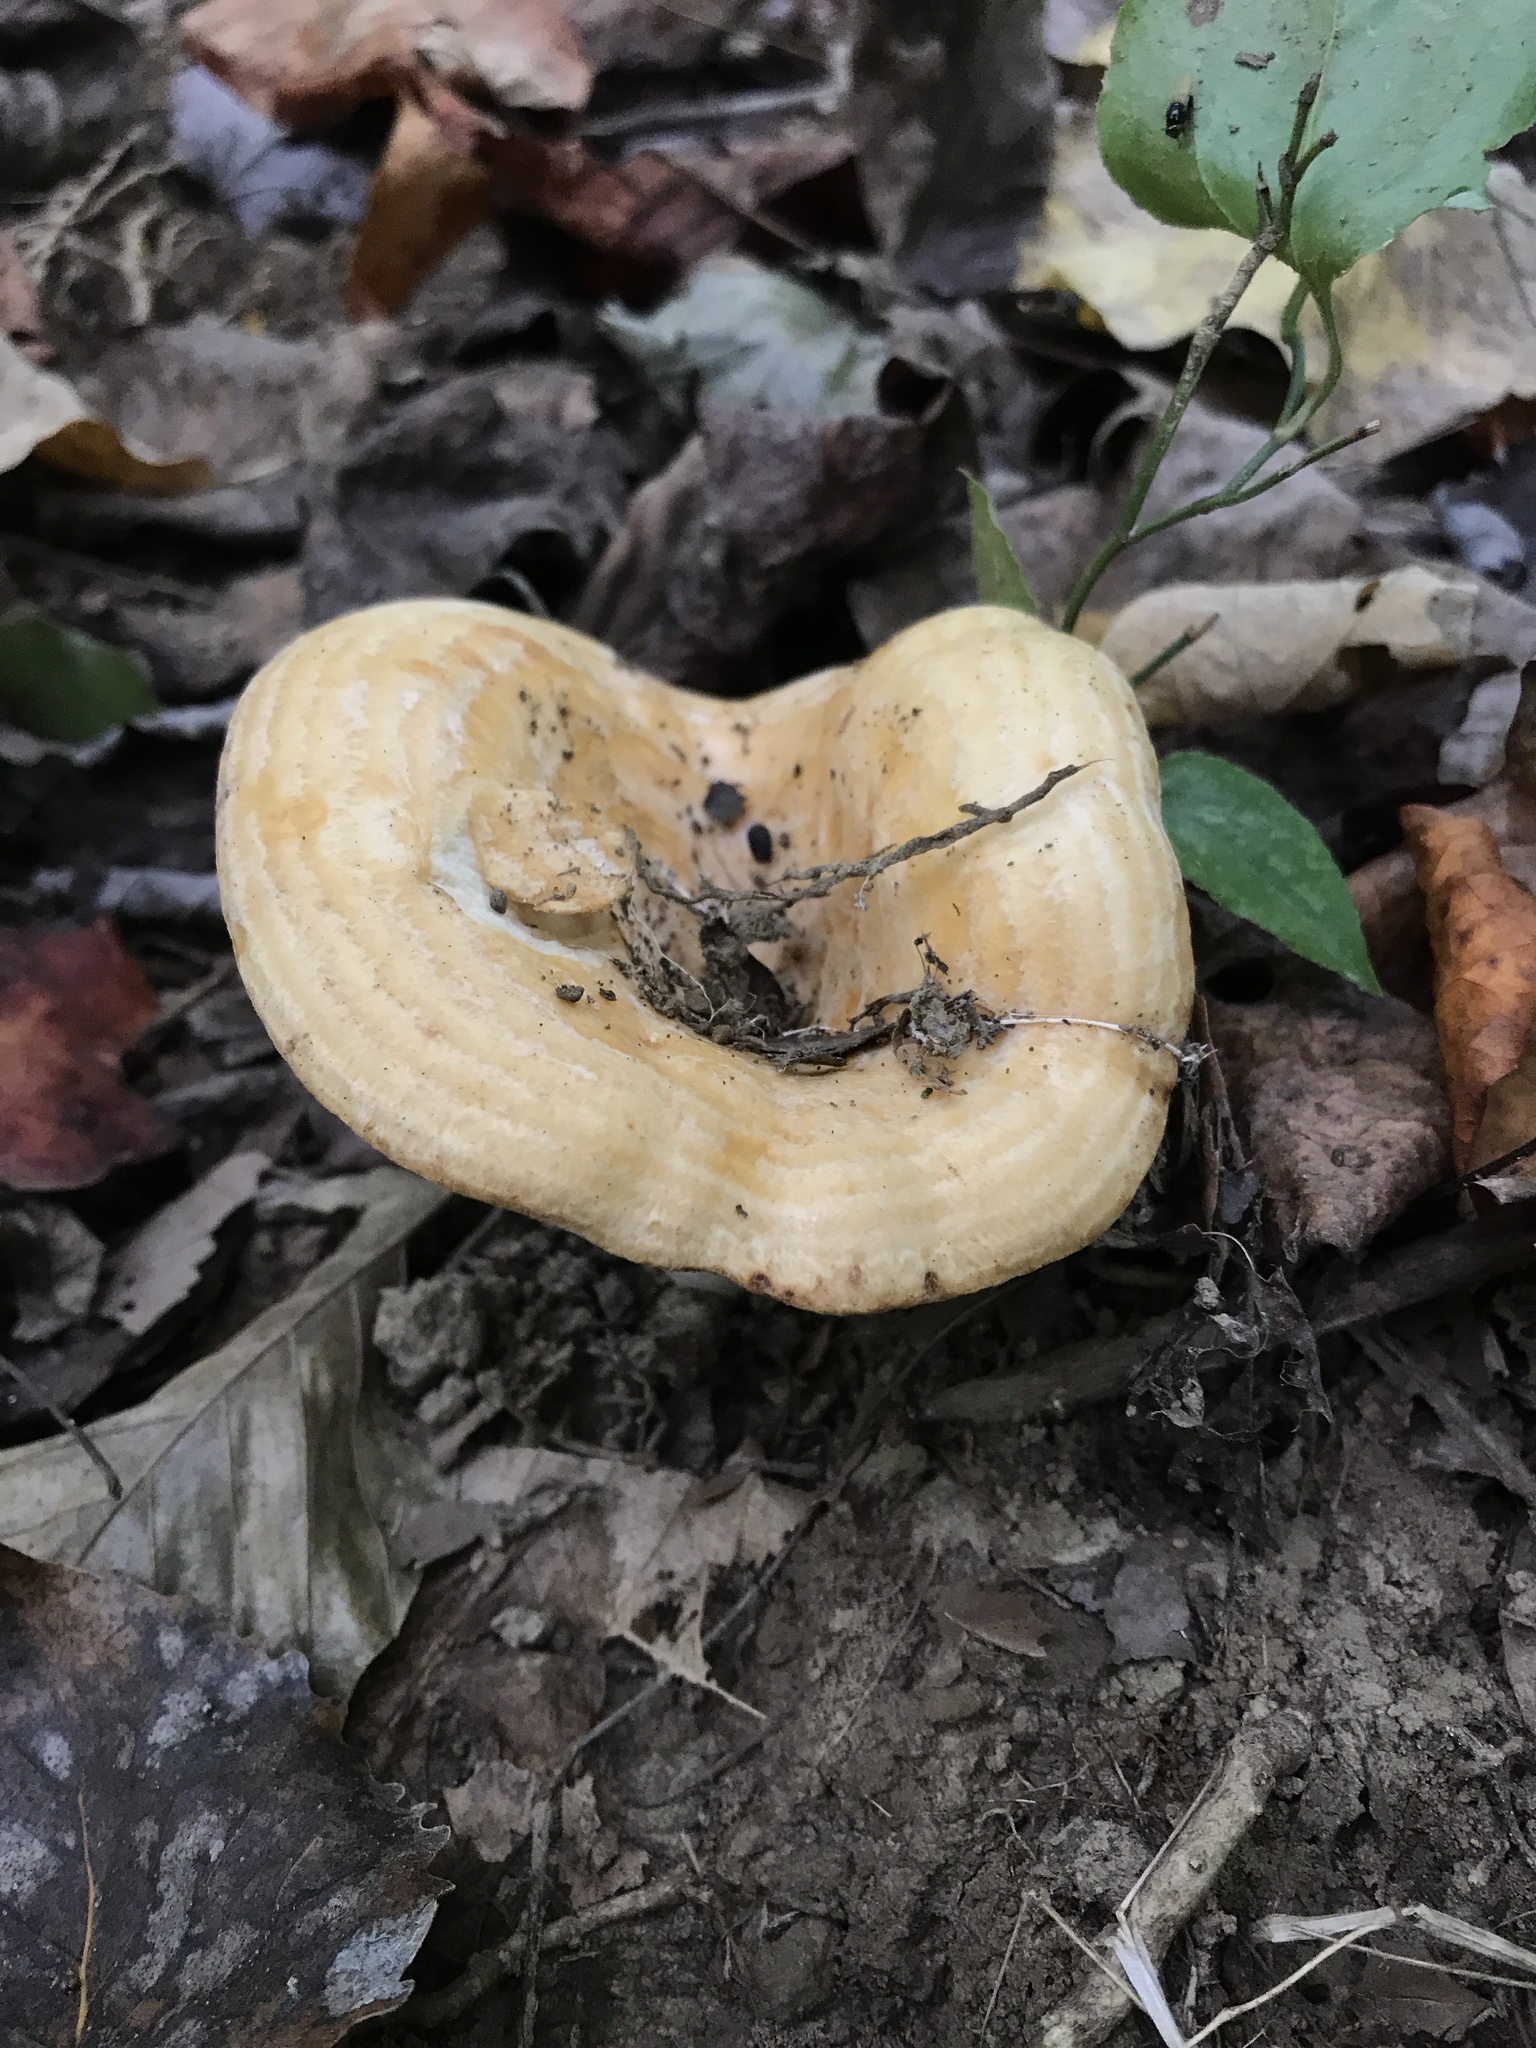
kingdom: Fungi
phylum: Basidiomycota
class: Agaricomycetes
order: Russulales
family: Russulaceae
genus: Lactarius
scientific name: Lactarius psammicola
